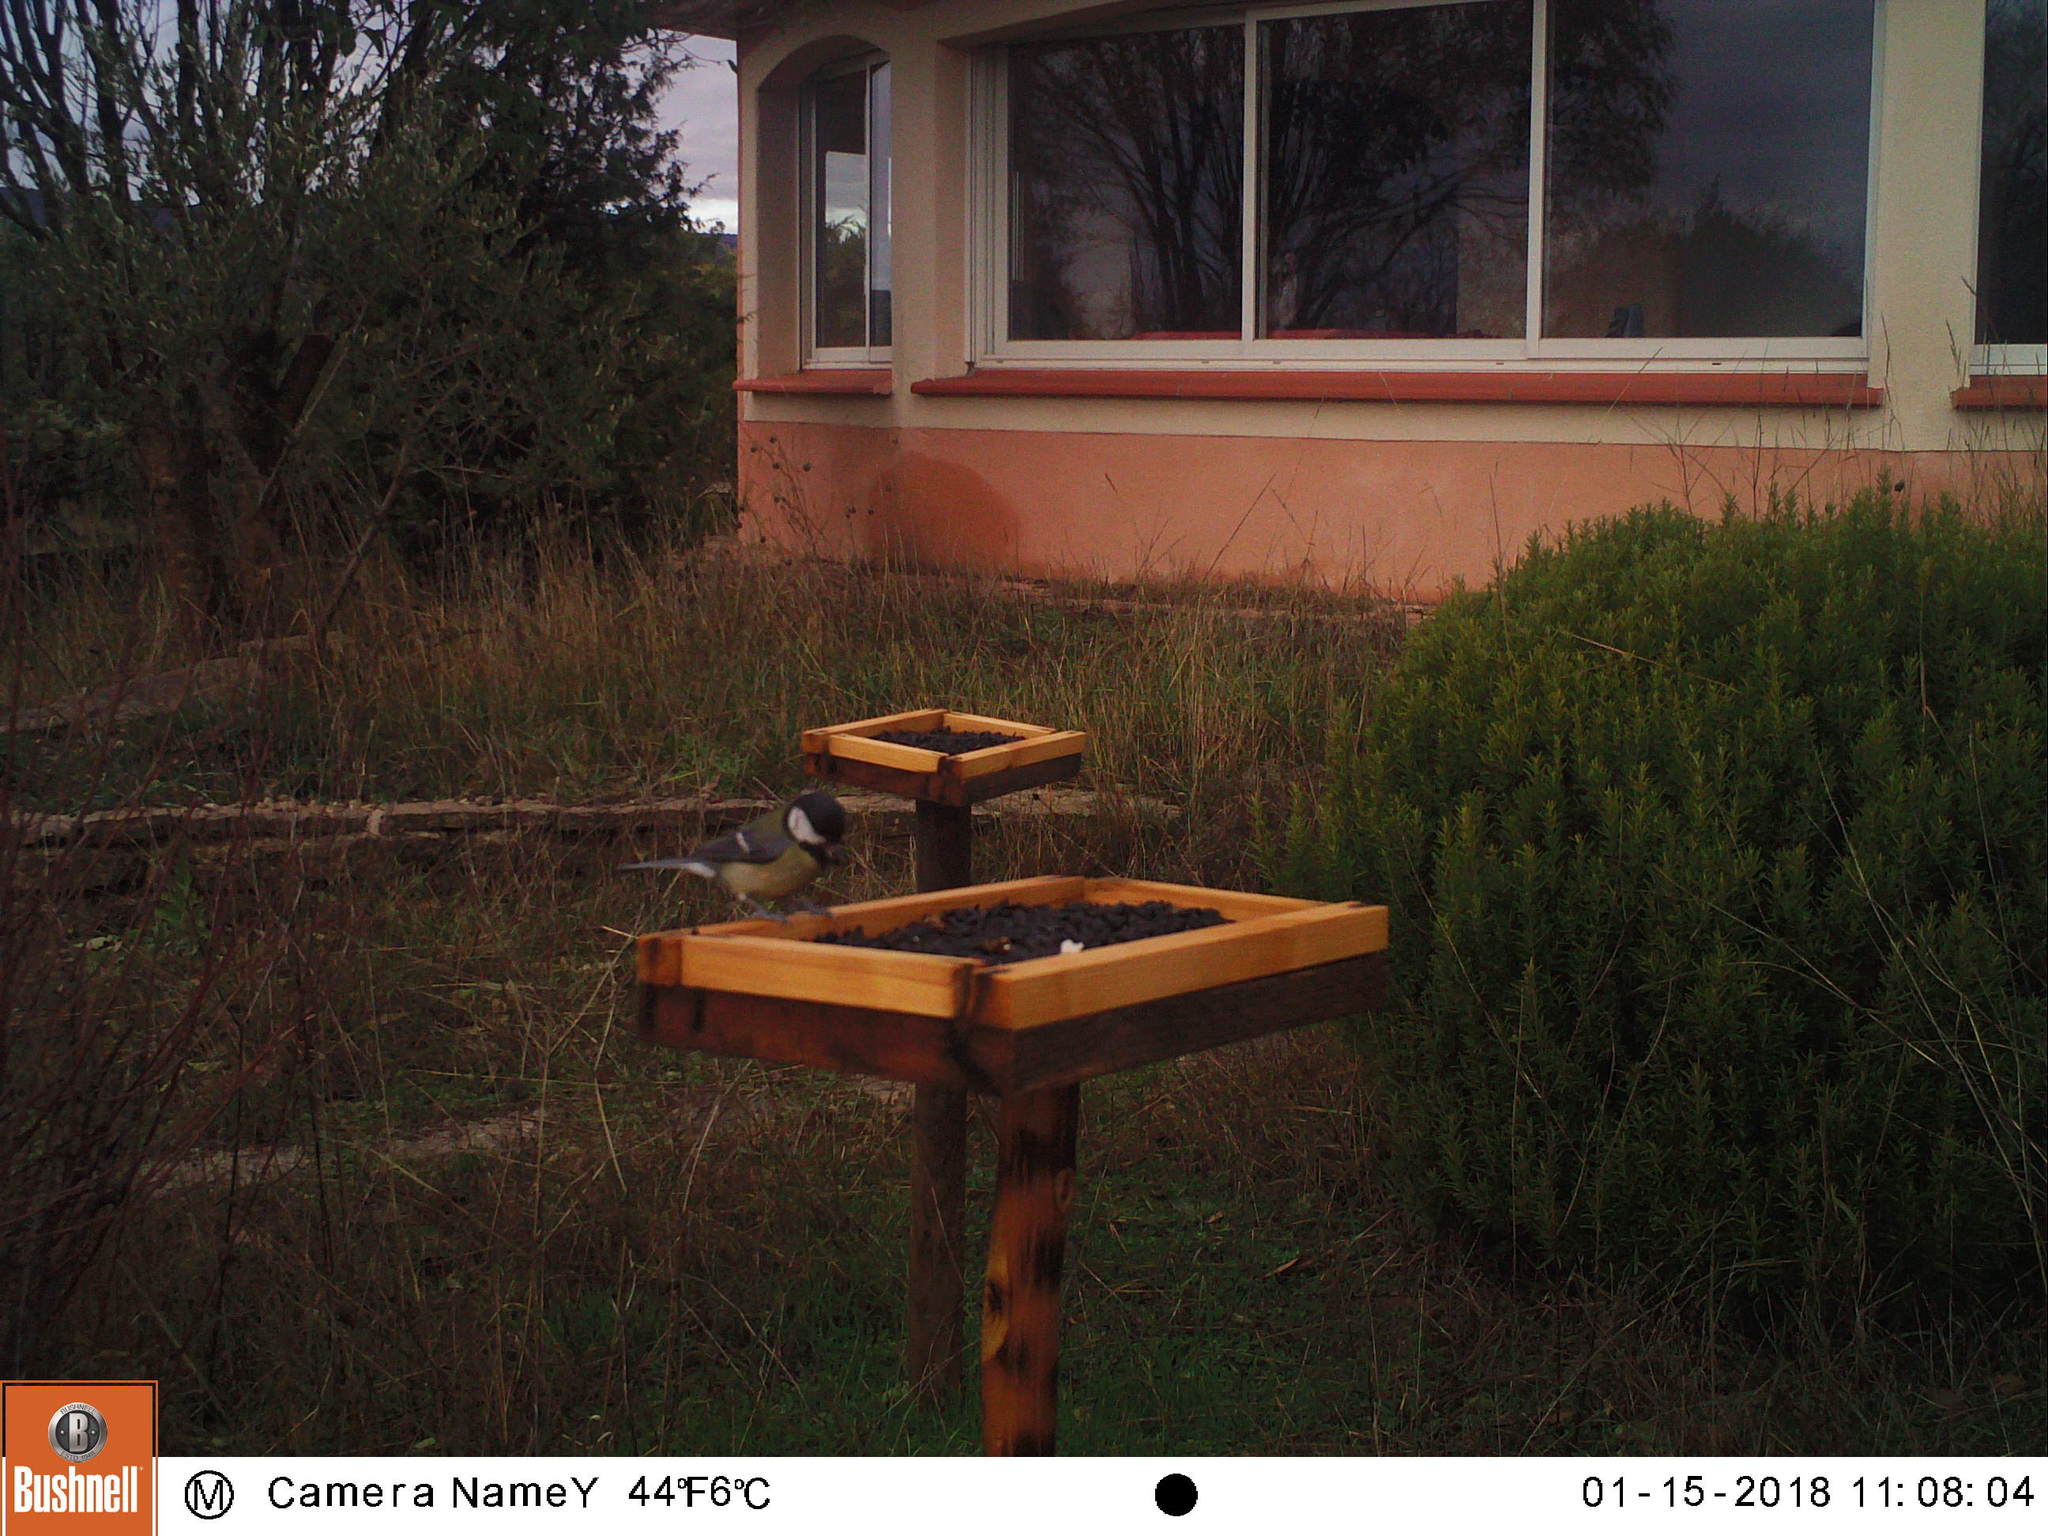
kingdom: Animalia
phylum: Chordata
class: Aves
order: Passeriformes
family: Paridae
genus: Parus
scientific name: Parus major
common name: Great tit
